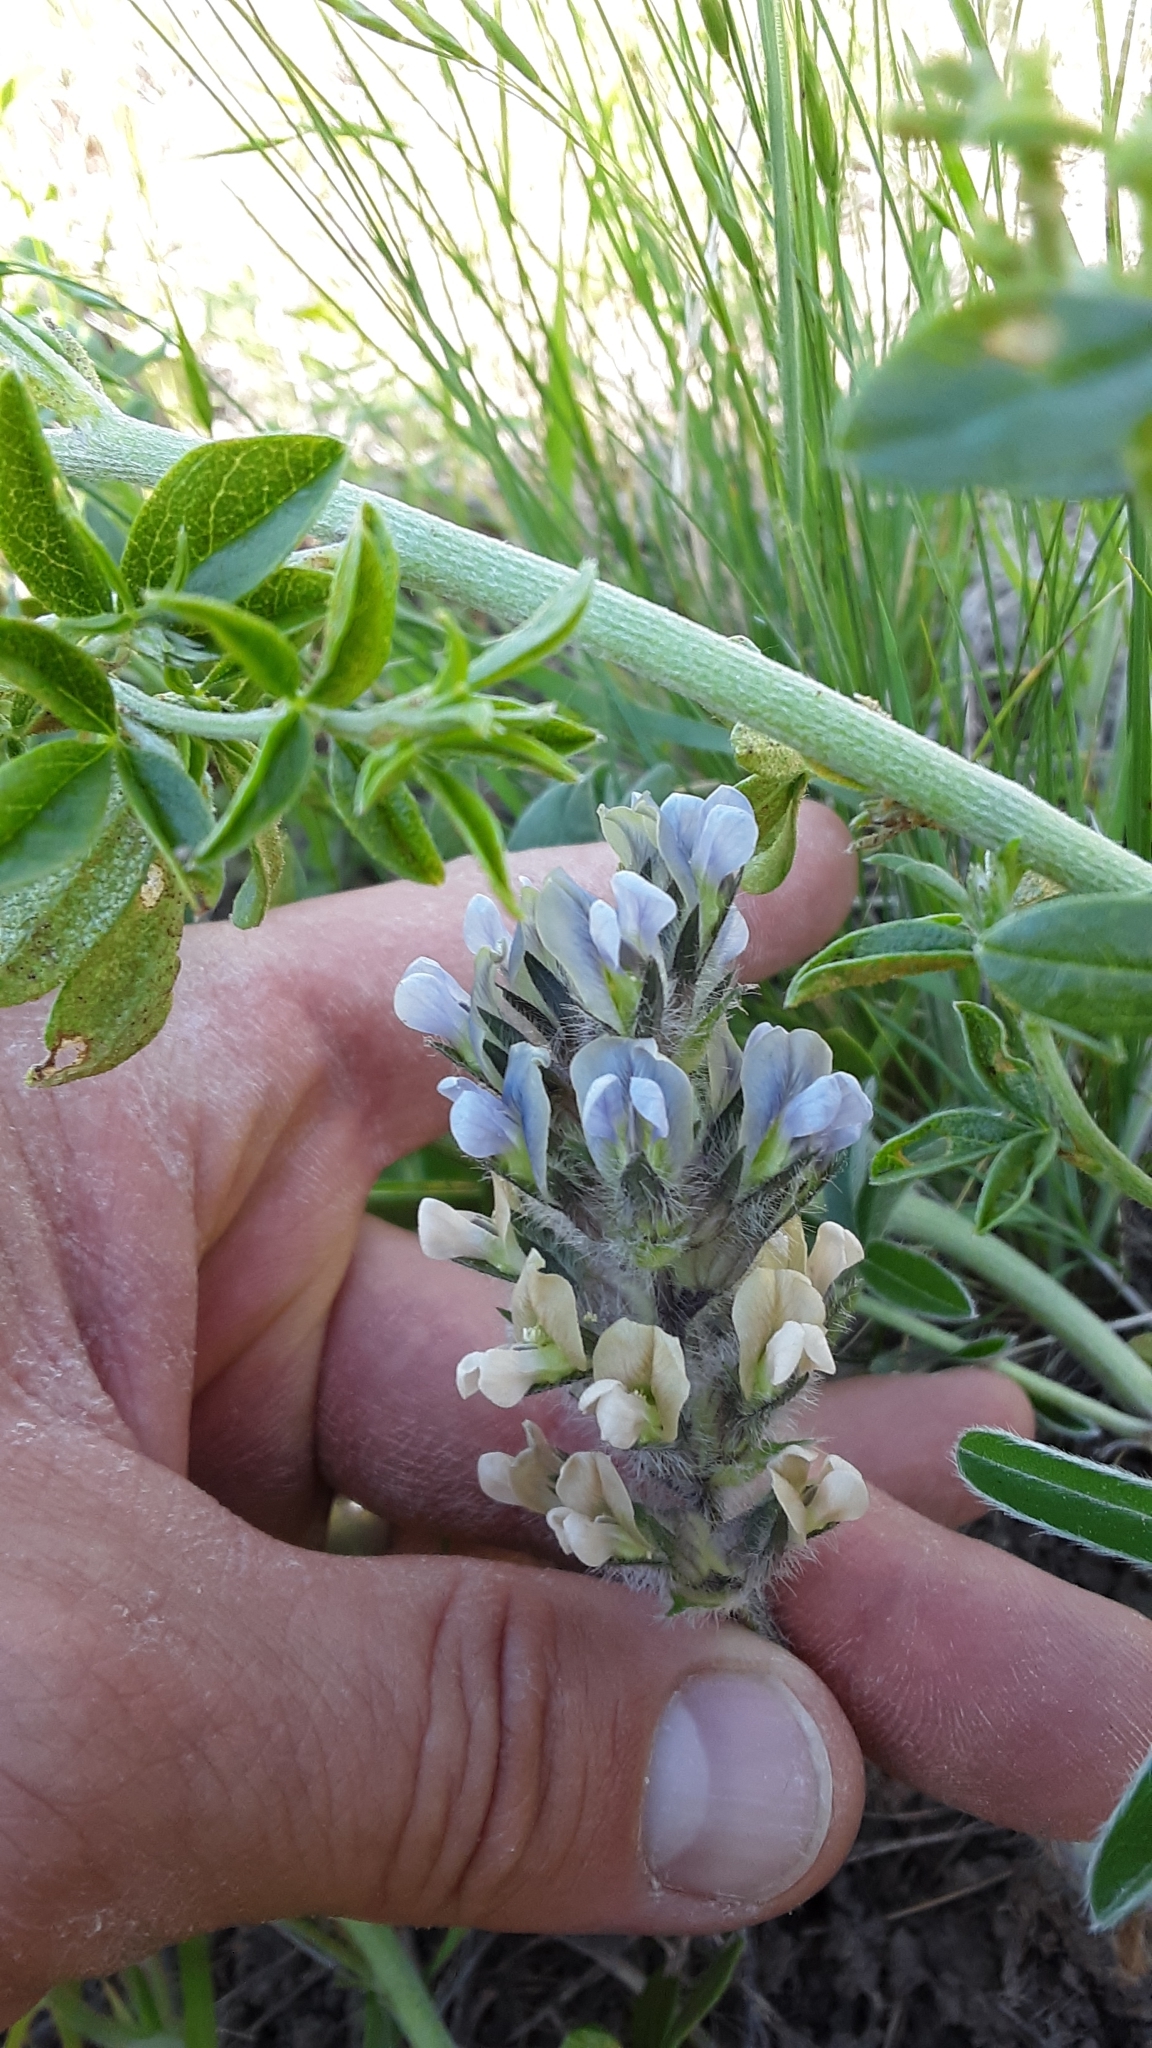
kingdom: Plantae
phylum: Tracheophyta
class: Magnoliopsida
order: Fabales
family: Fabaceae
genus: Pediomelum
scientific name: Pediomelum esculentum
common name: Indian-turnip
